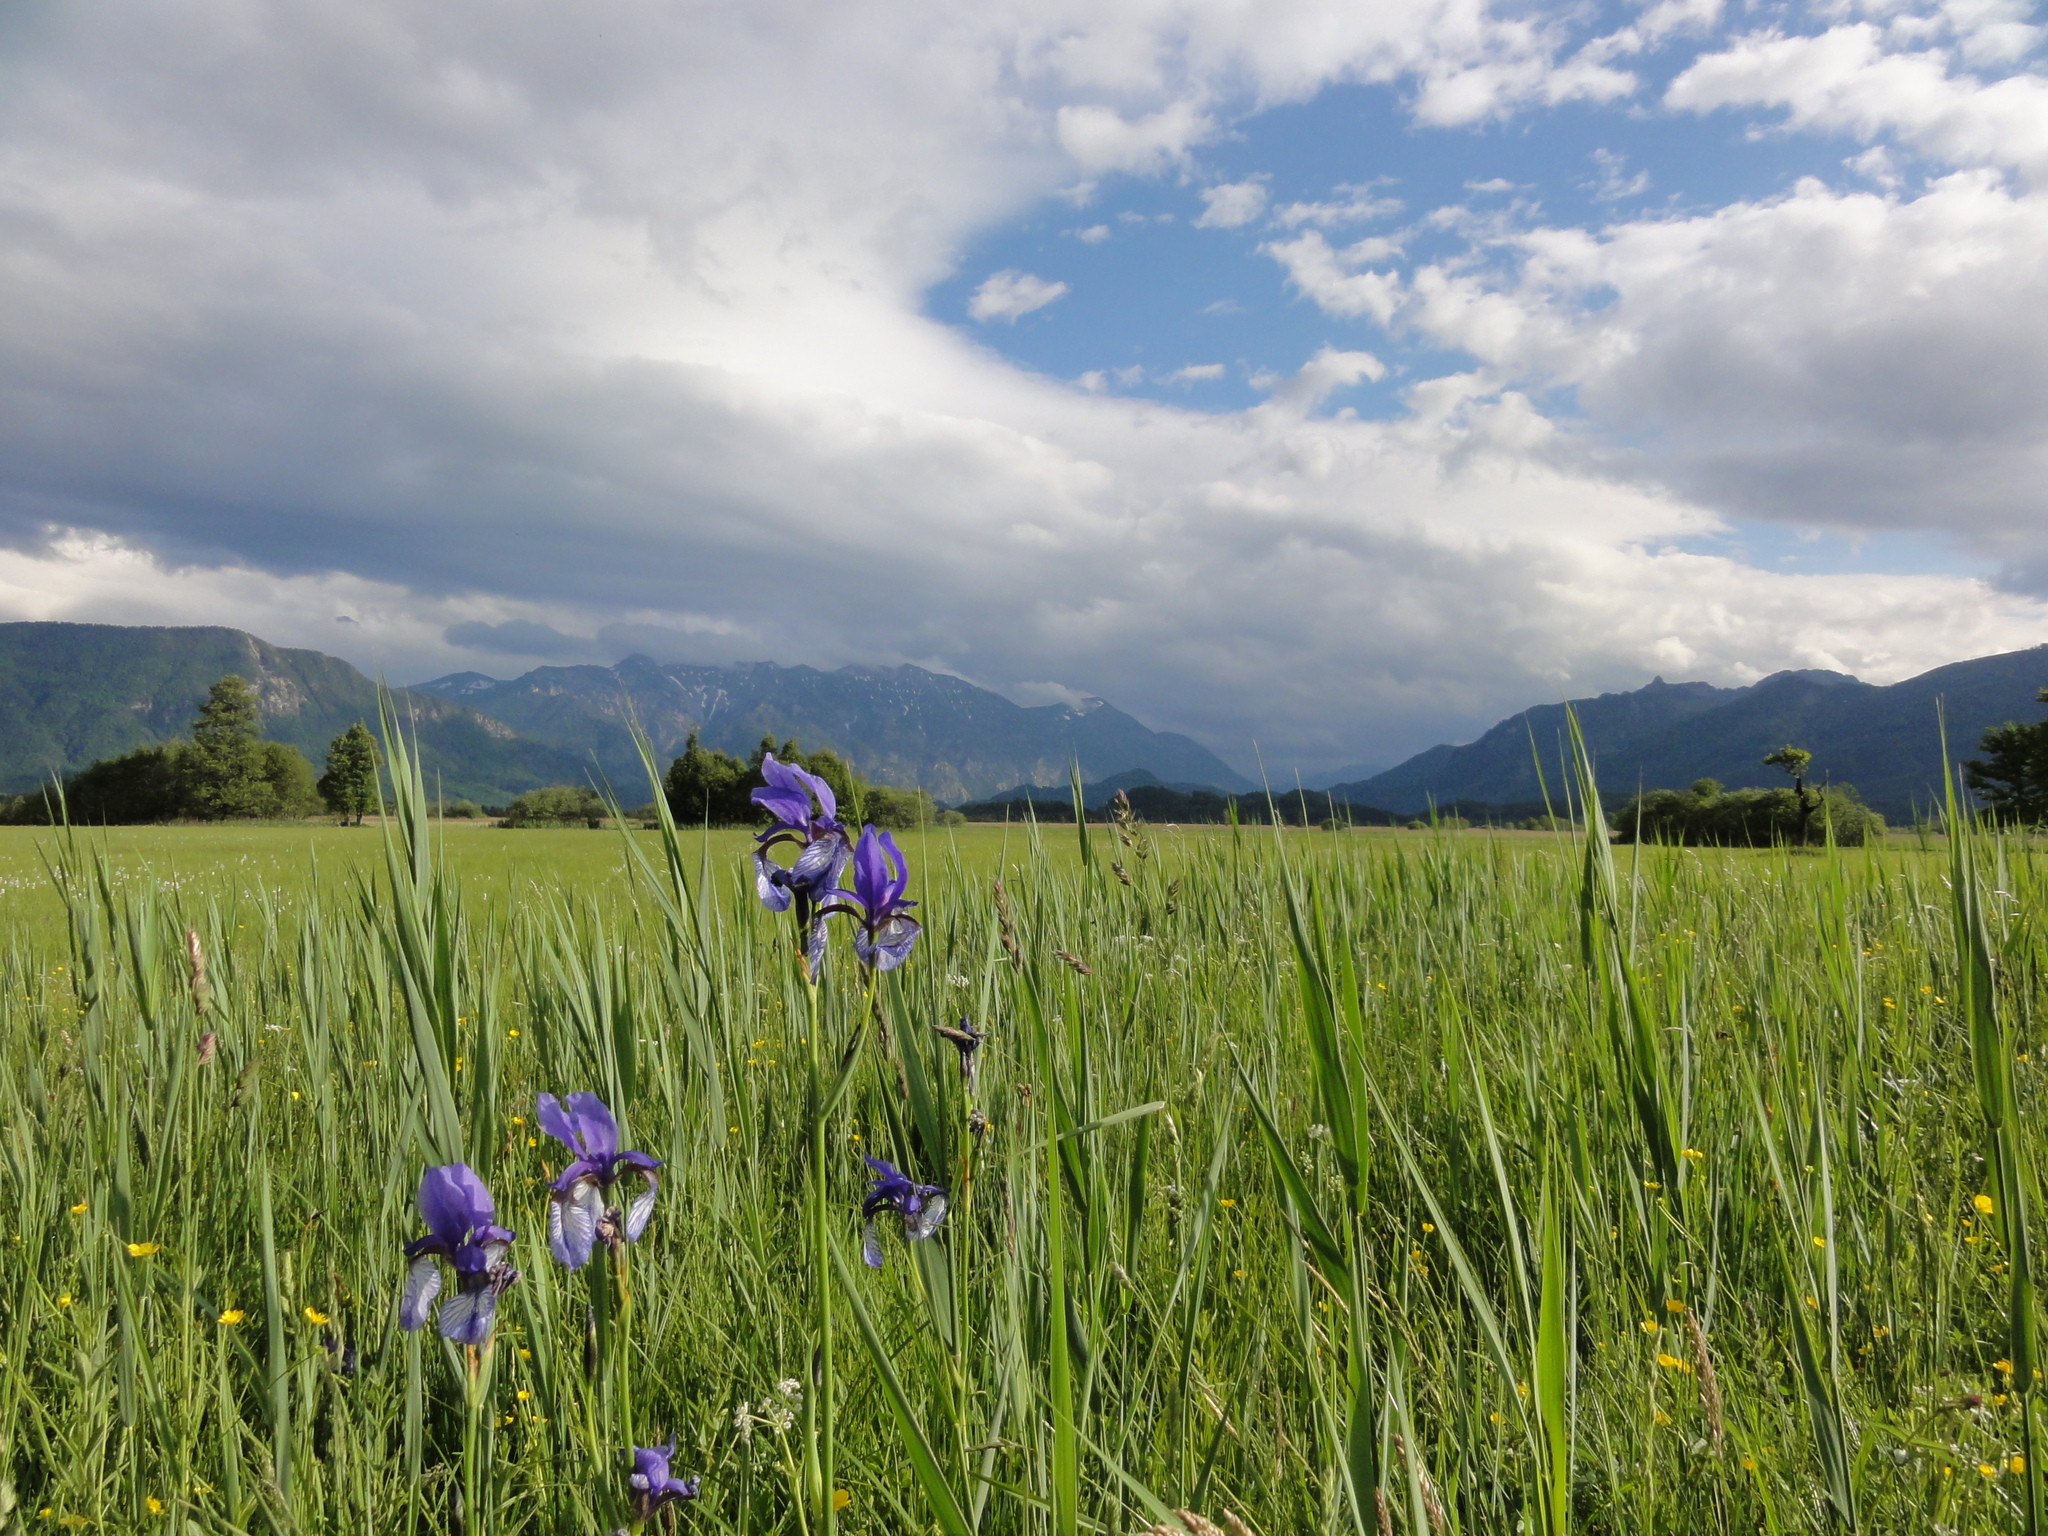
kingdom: Plantae
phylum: Tracheophyta
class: Liliopsida
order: Asparagales
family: Iridaceae
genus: Iris
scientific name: Iris sibirica
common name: Siberian iris
